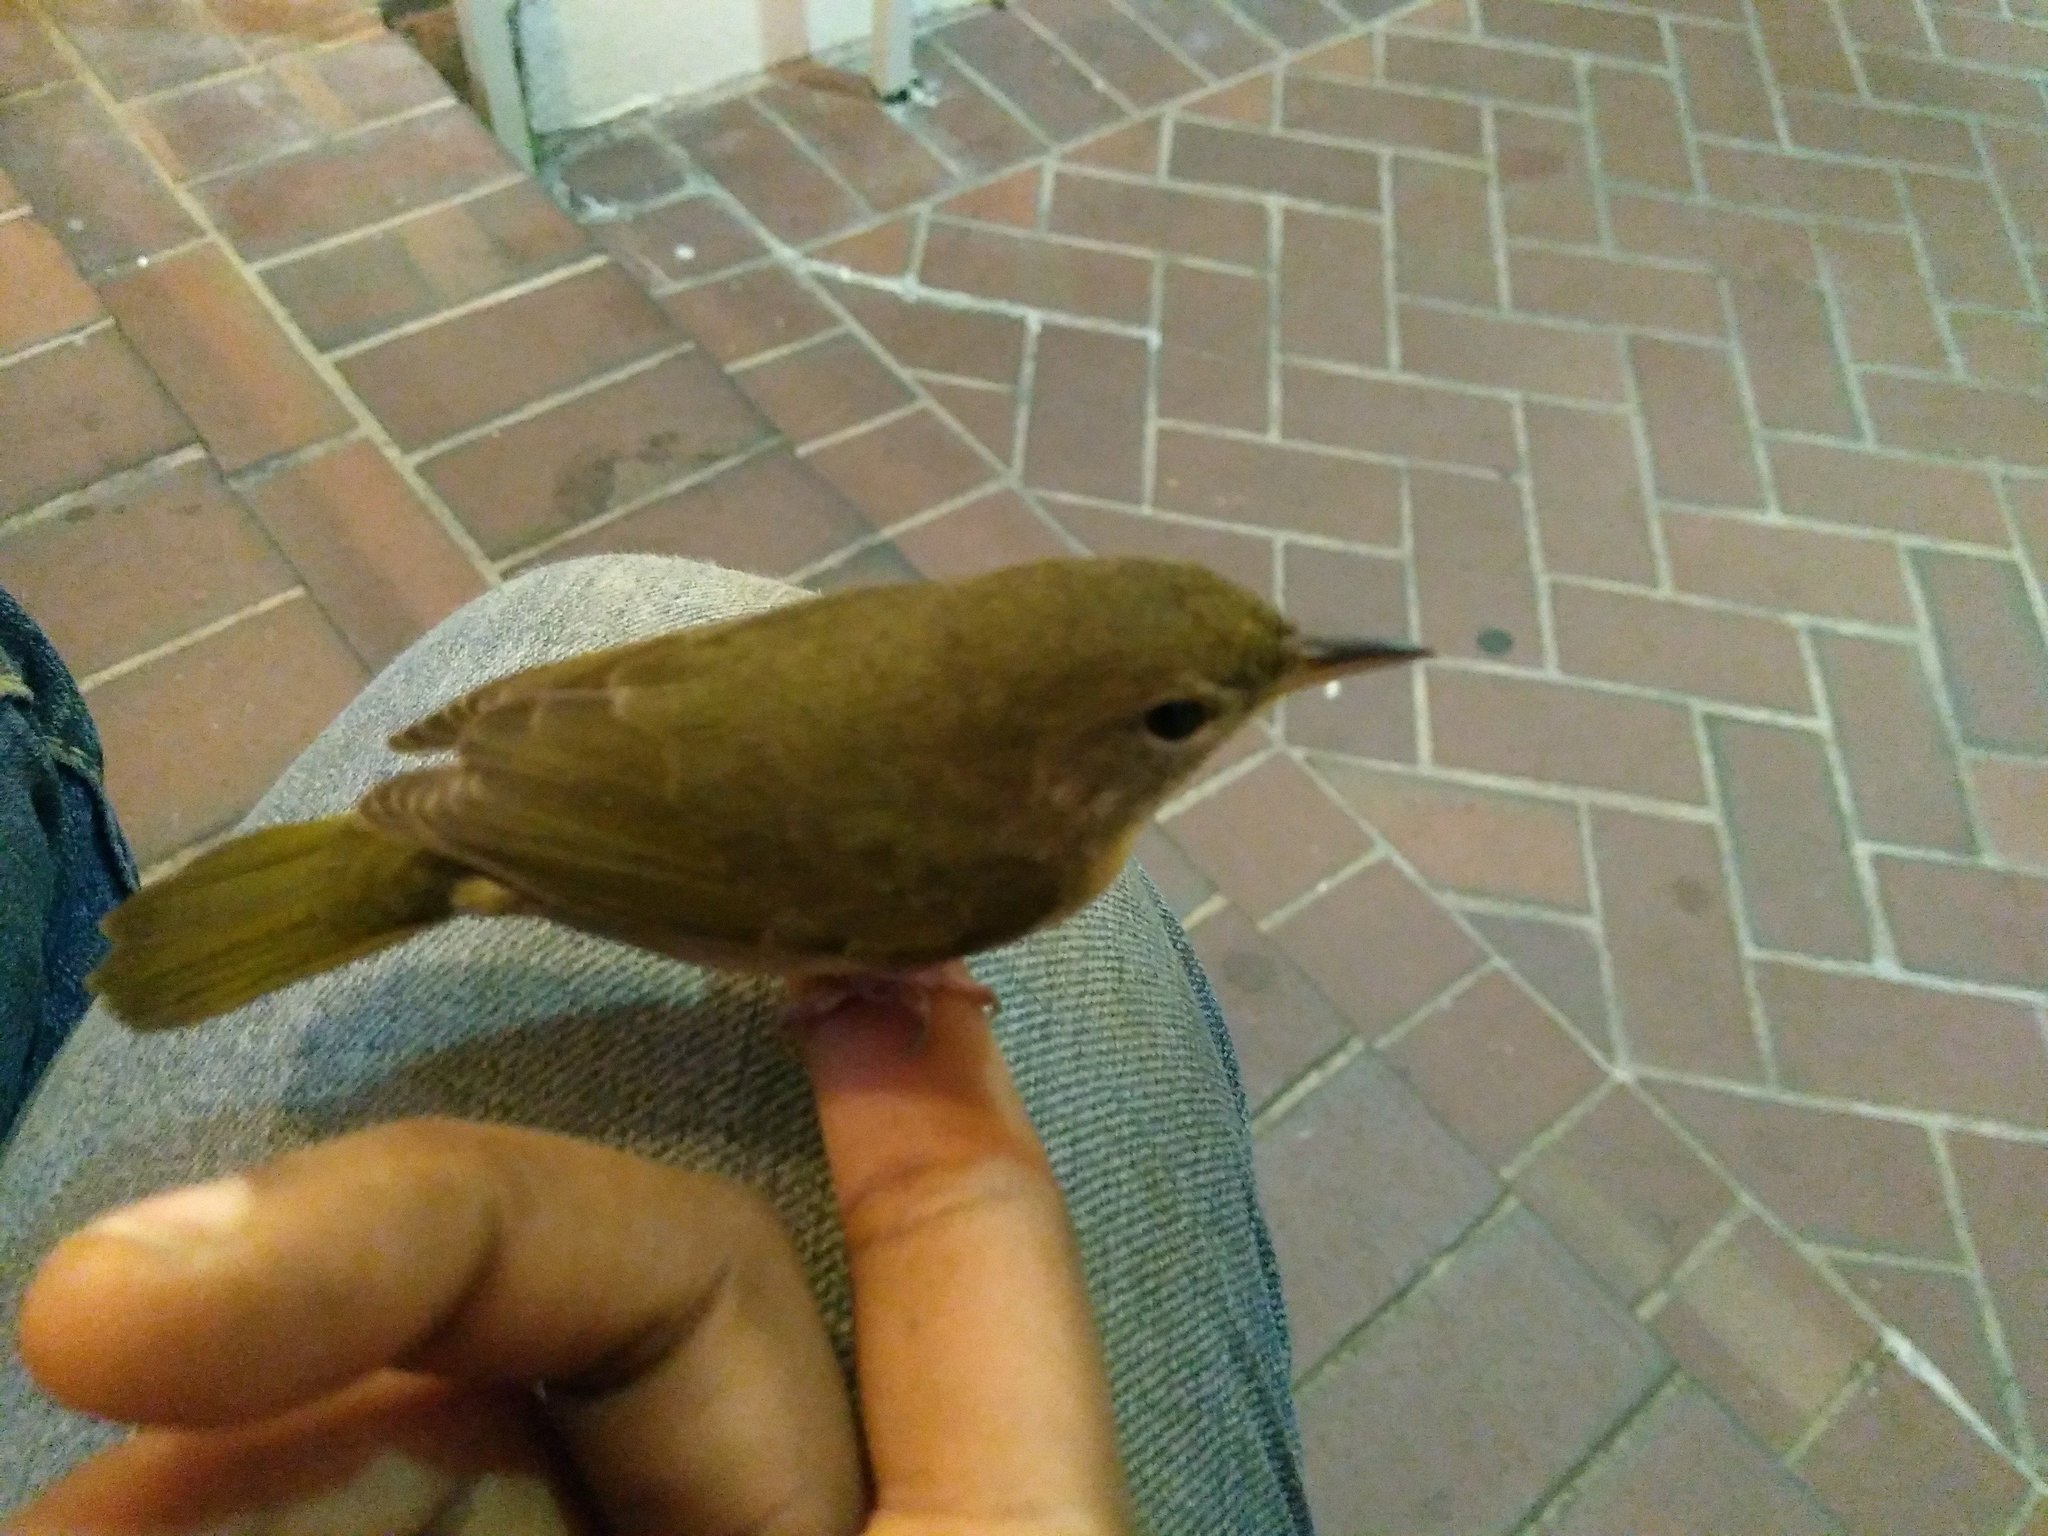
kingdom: Animalia
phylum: Chordata
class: Aves
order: Passeriformes
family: Parulidae
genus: Geothlypis
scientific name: Geothlypis trichas
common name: Common yellowthroat
